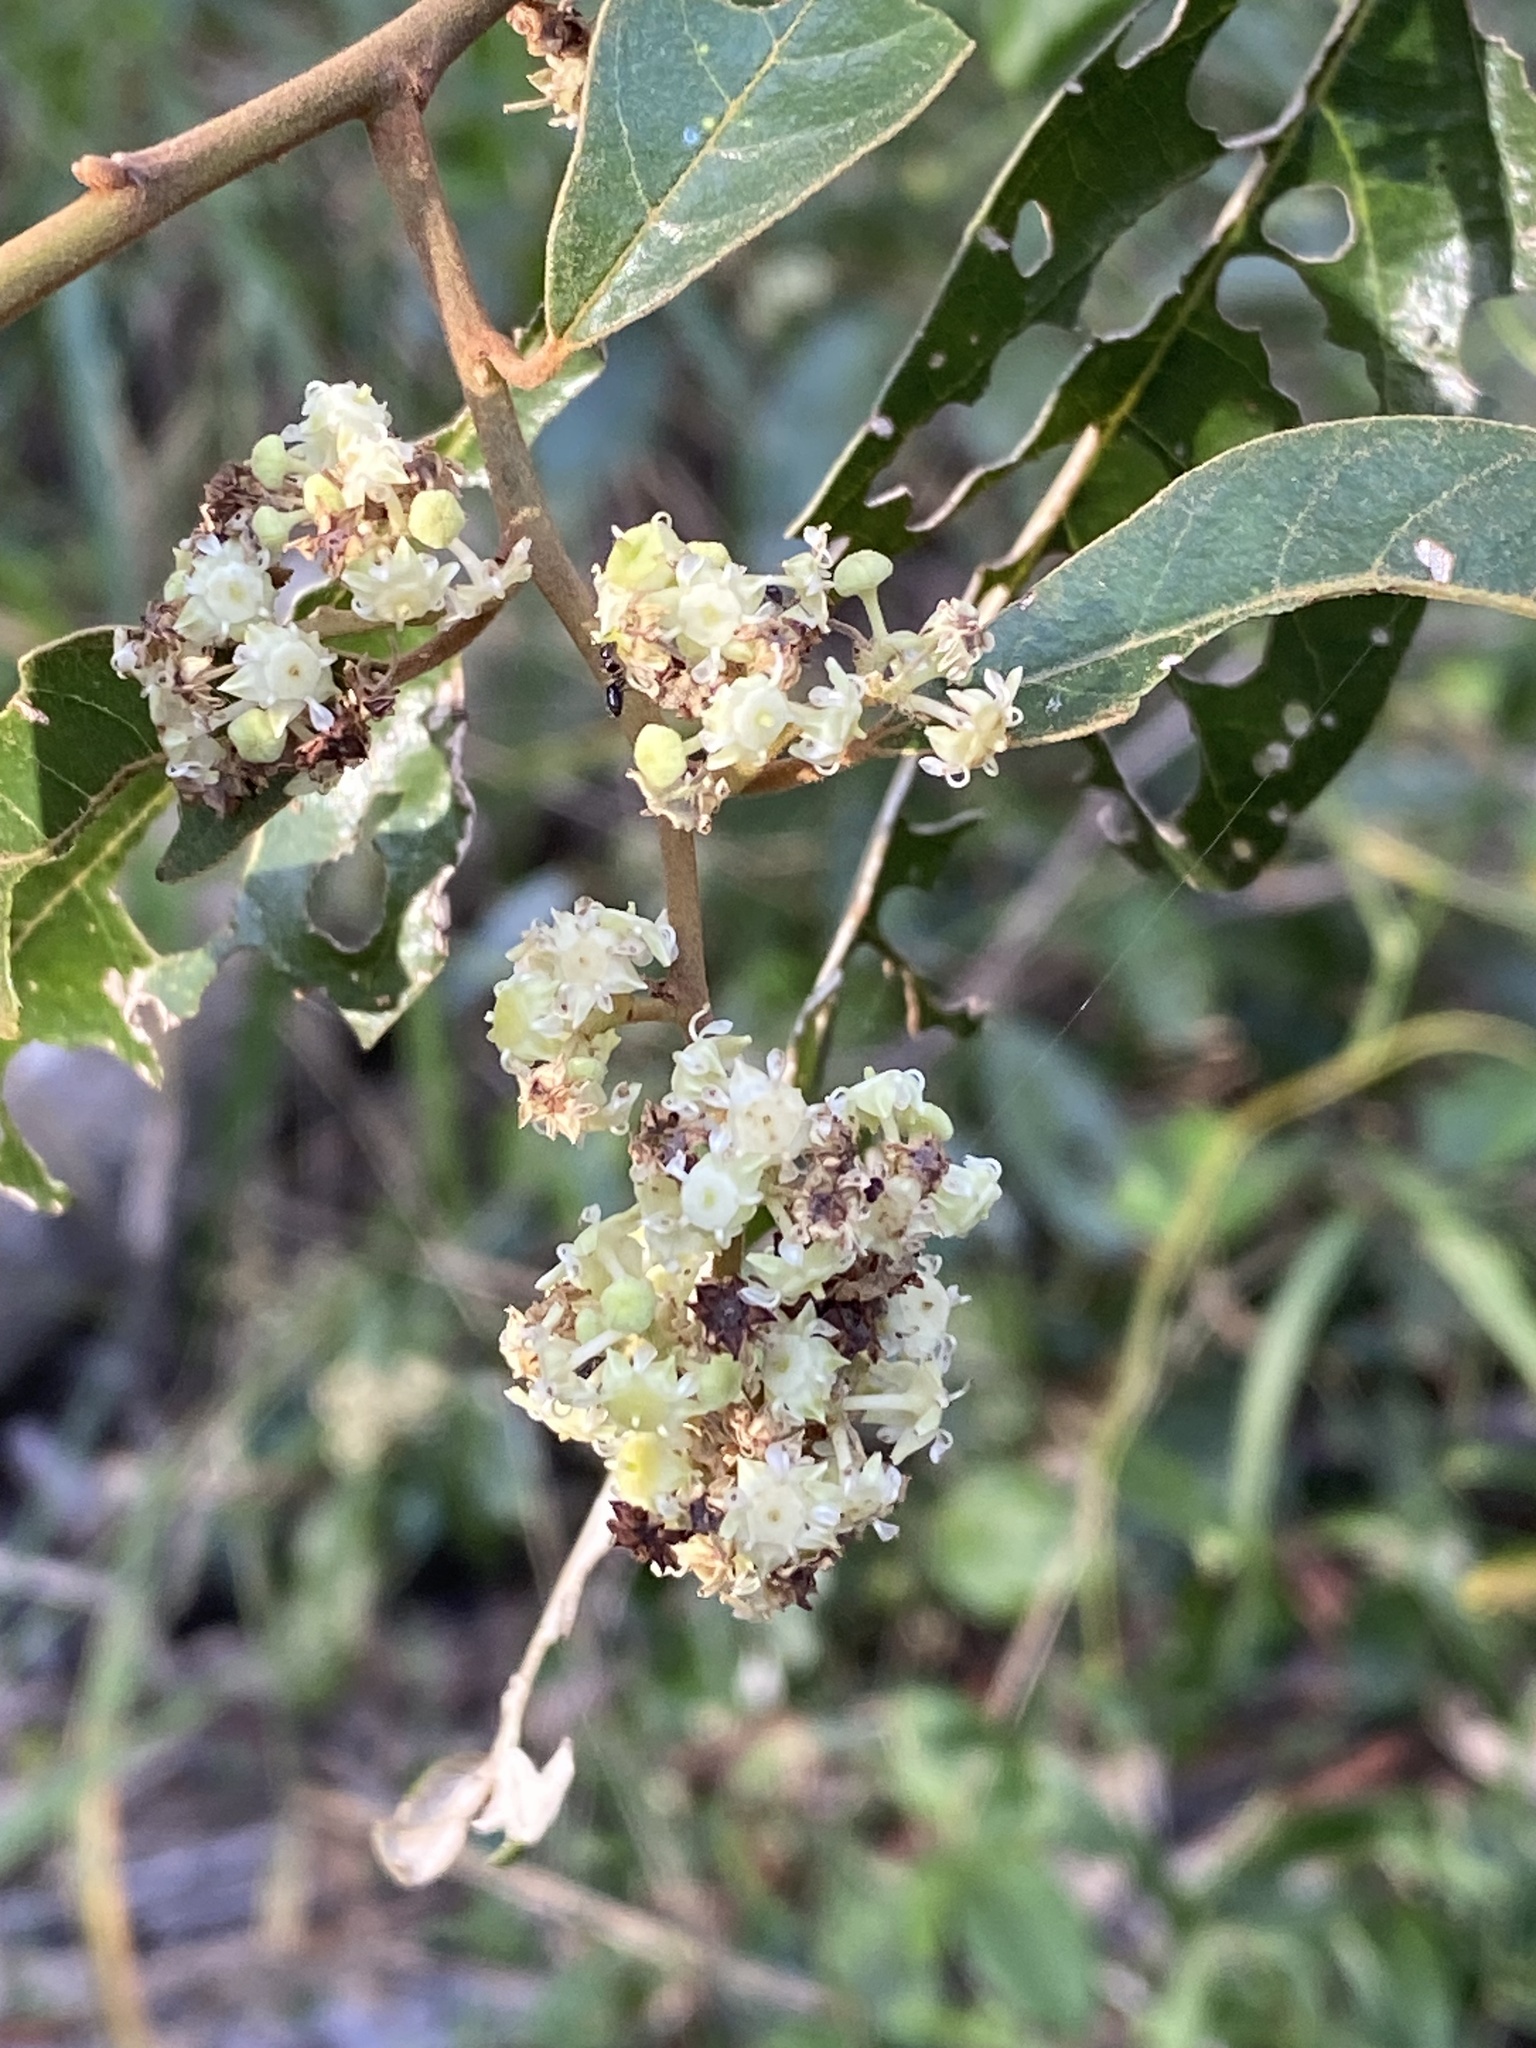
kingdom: Plantae
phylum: Tracheophyta
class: Magnoliopsida
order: Rosales
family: Rhamnaceae
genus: Alphitonia
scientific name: Alphitonia excelsa
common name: Red ash
